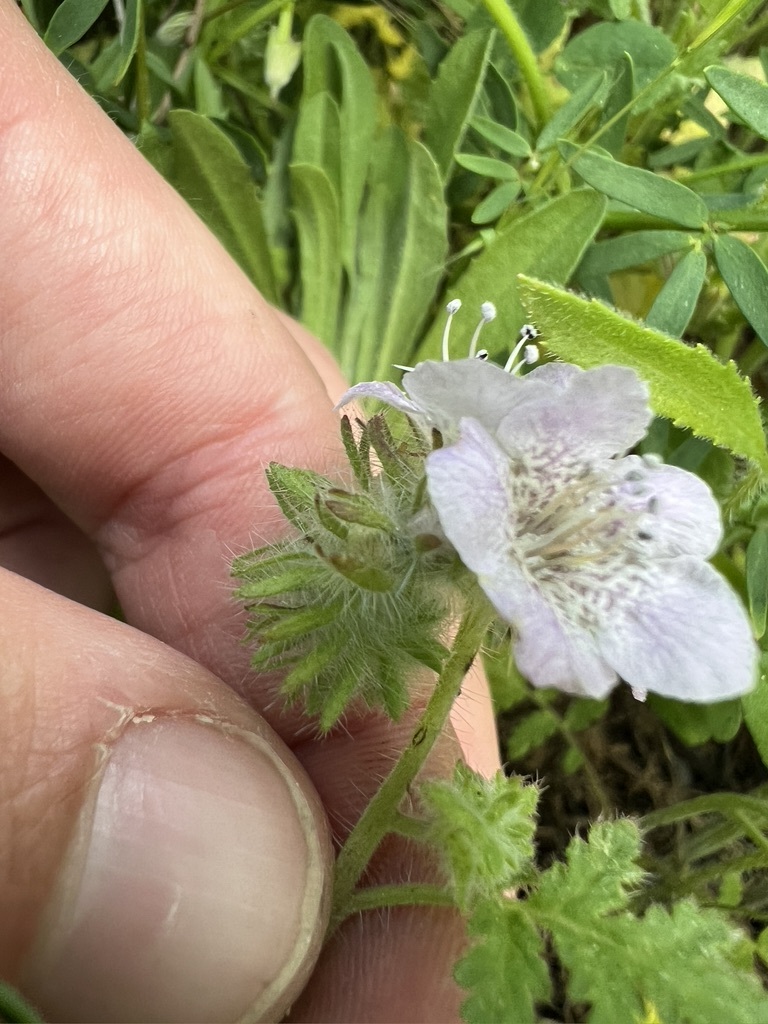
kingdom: Plantae
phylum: Tracheophyta
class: Magnoliopsida
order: Boraginales
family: Hydrophyllaceae
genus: Phacelia
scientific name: Phacelia cicutaria
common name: Caterpillar phacelia
